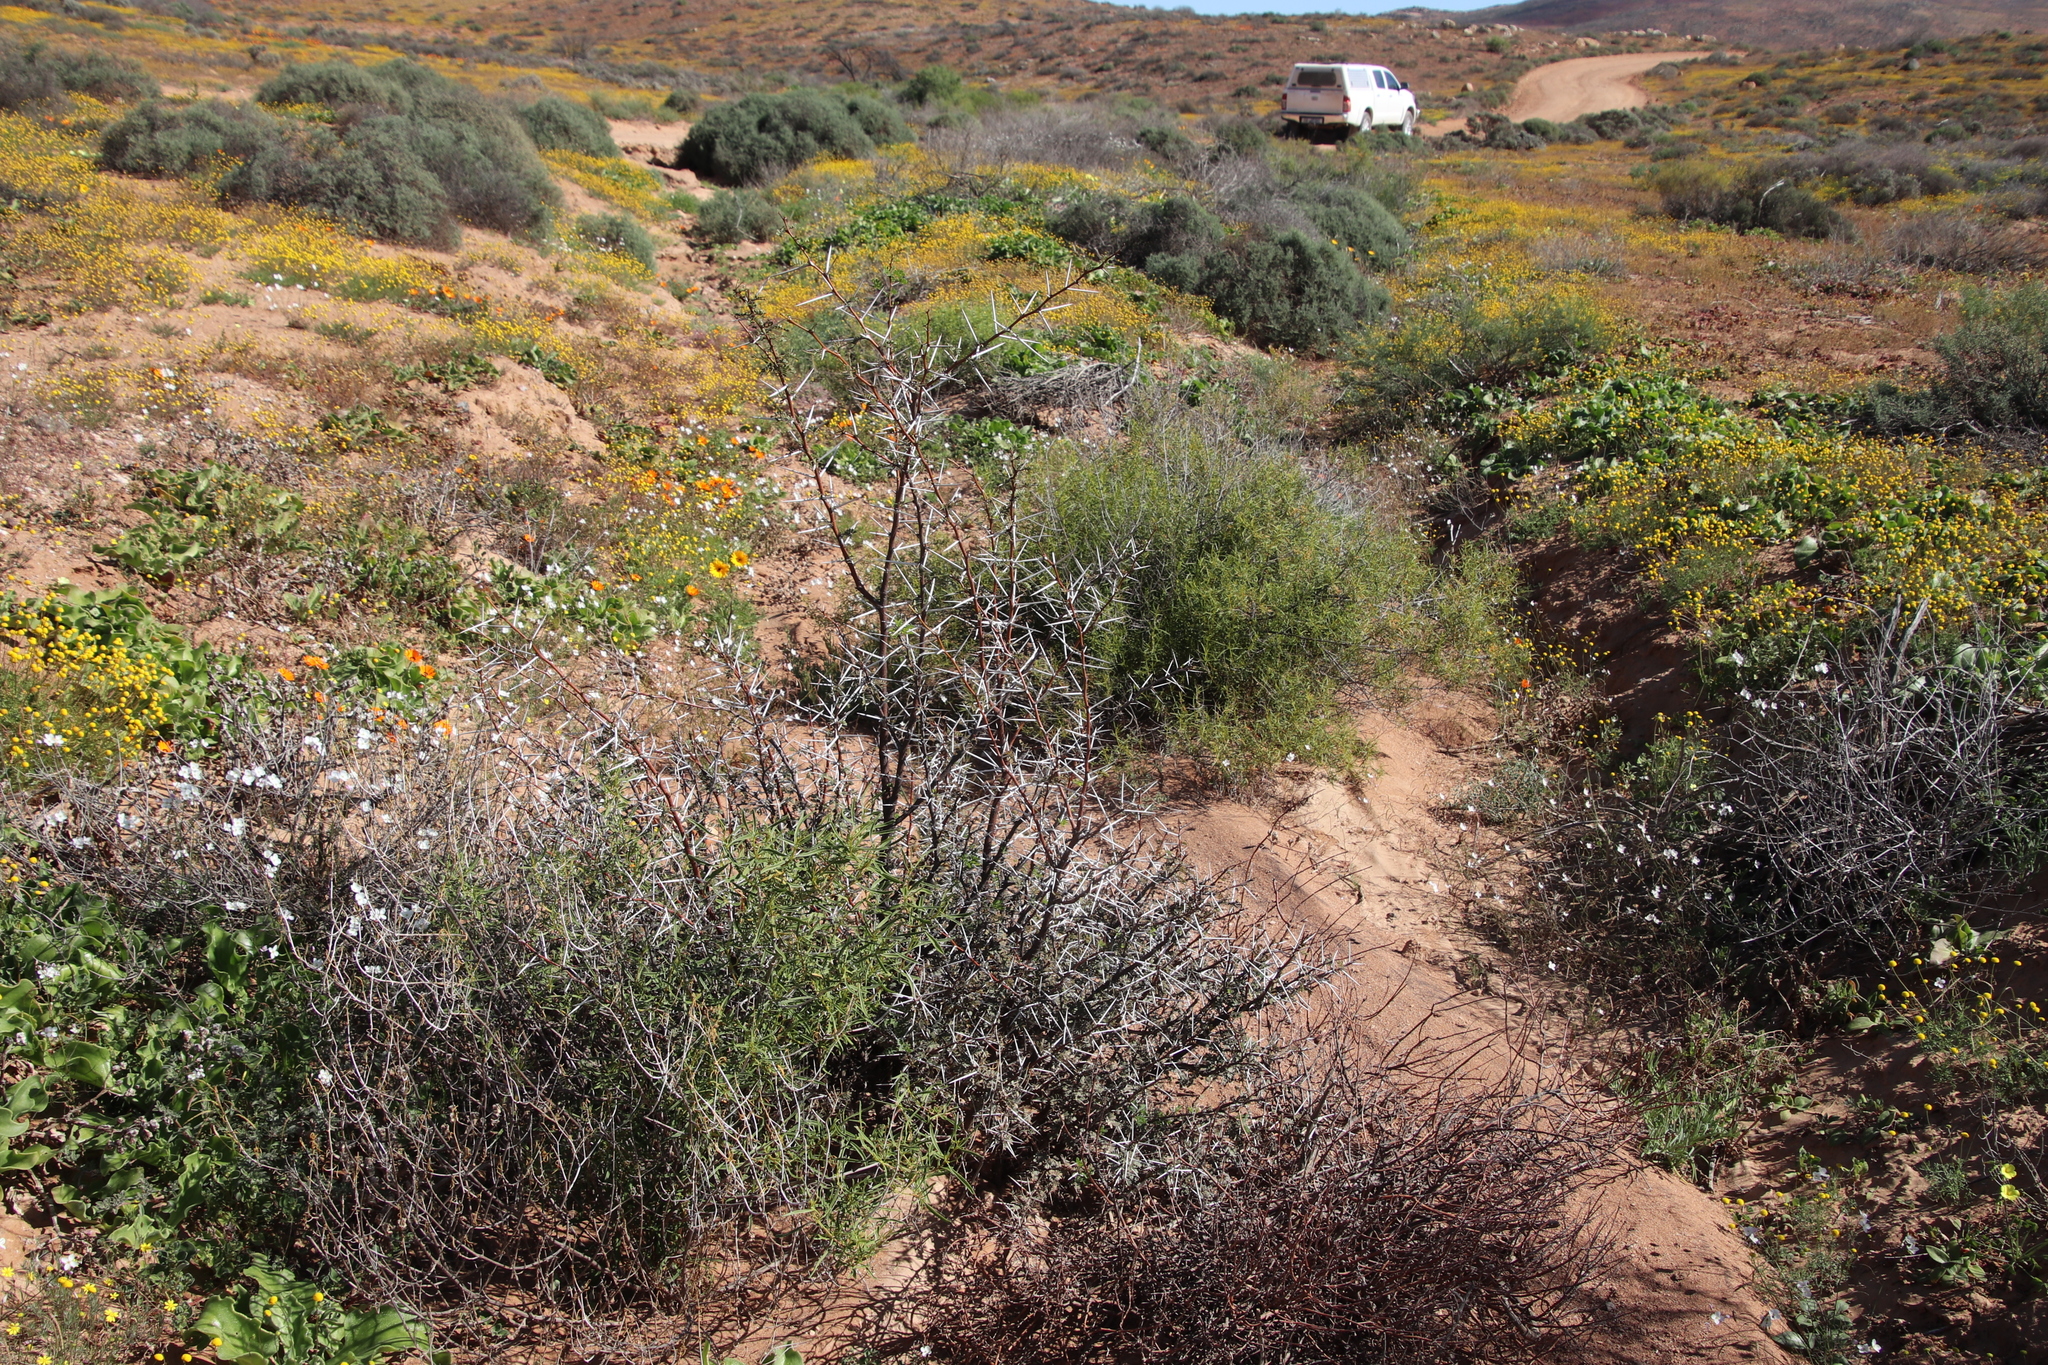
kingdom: Plantae
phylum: Tracheophyta
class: Magnoliopsida
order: Caryophyllales
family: Aizoaceae
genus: Aizoon
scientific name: Aizoon africanum
